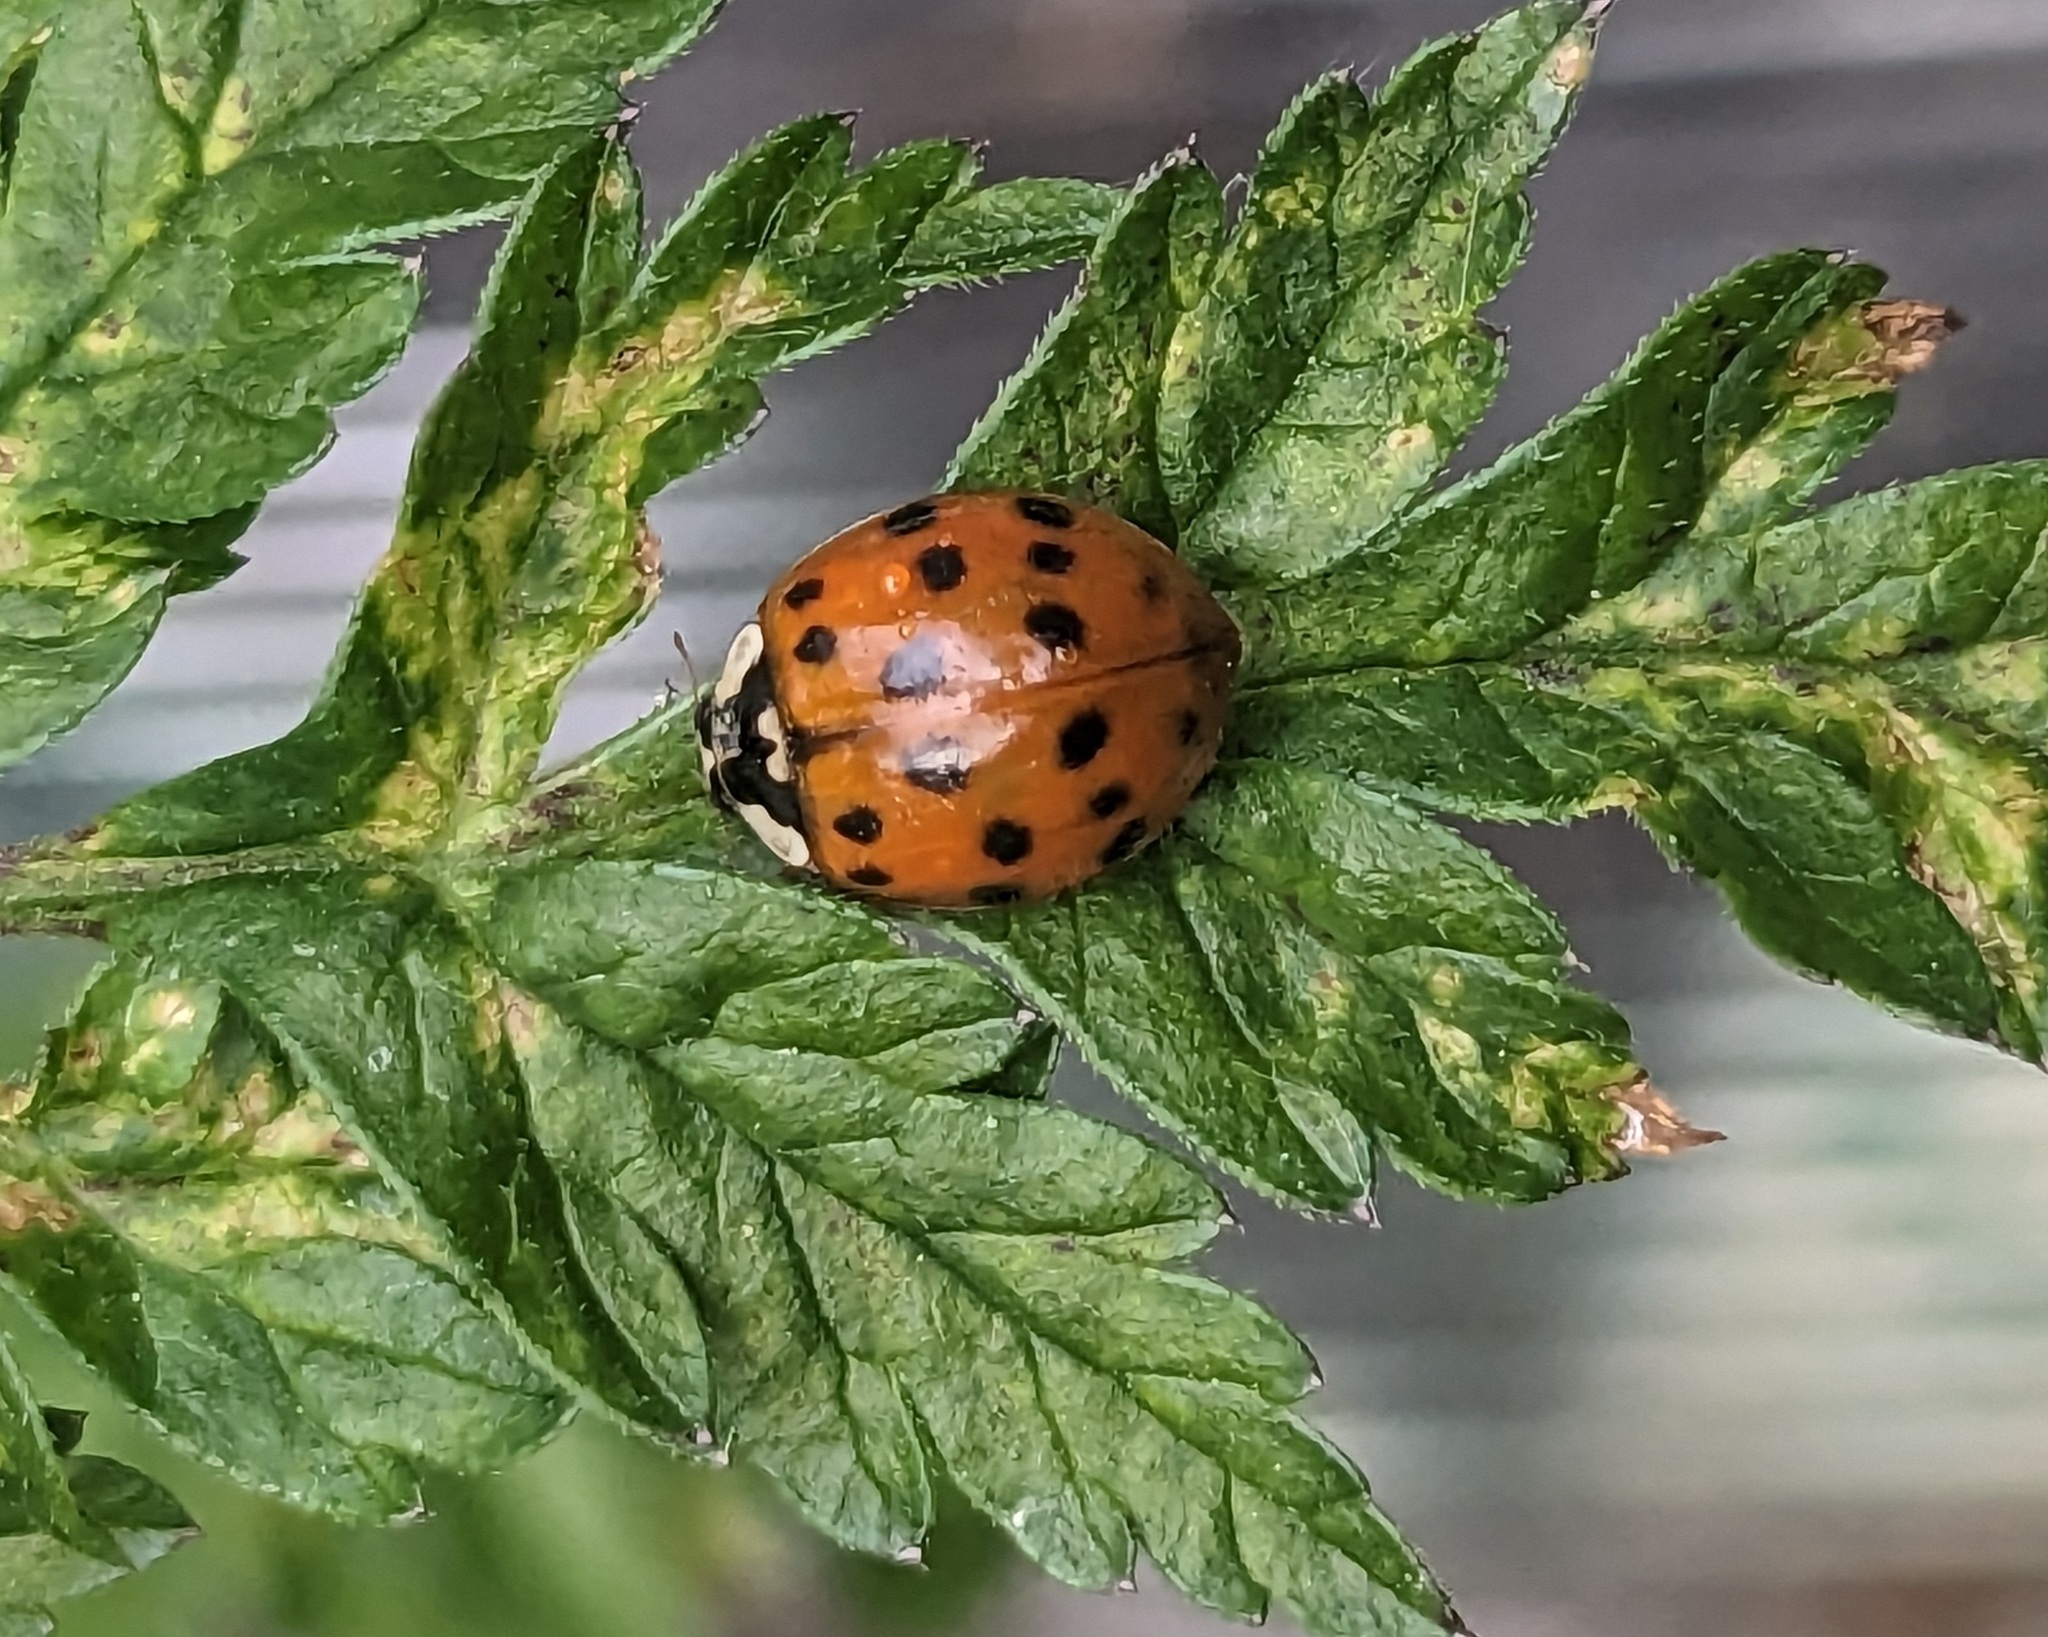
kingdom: Animalia
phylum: Arthropoda
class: Insecta
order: Coleoptera
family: Coccinellidae
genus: Harmonia
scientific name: Harmonia axyridis
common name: Harlequin ladybird
